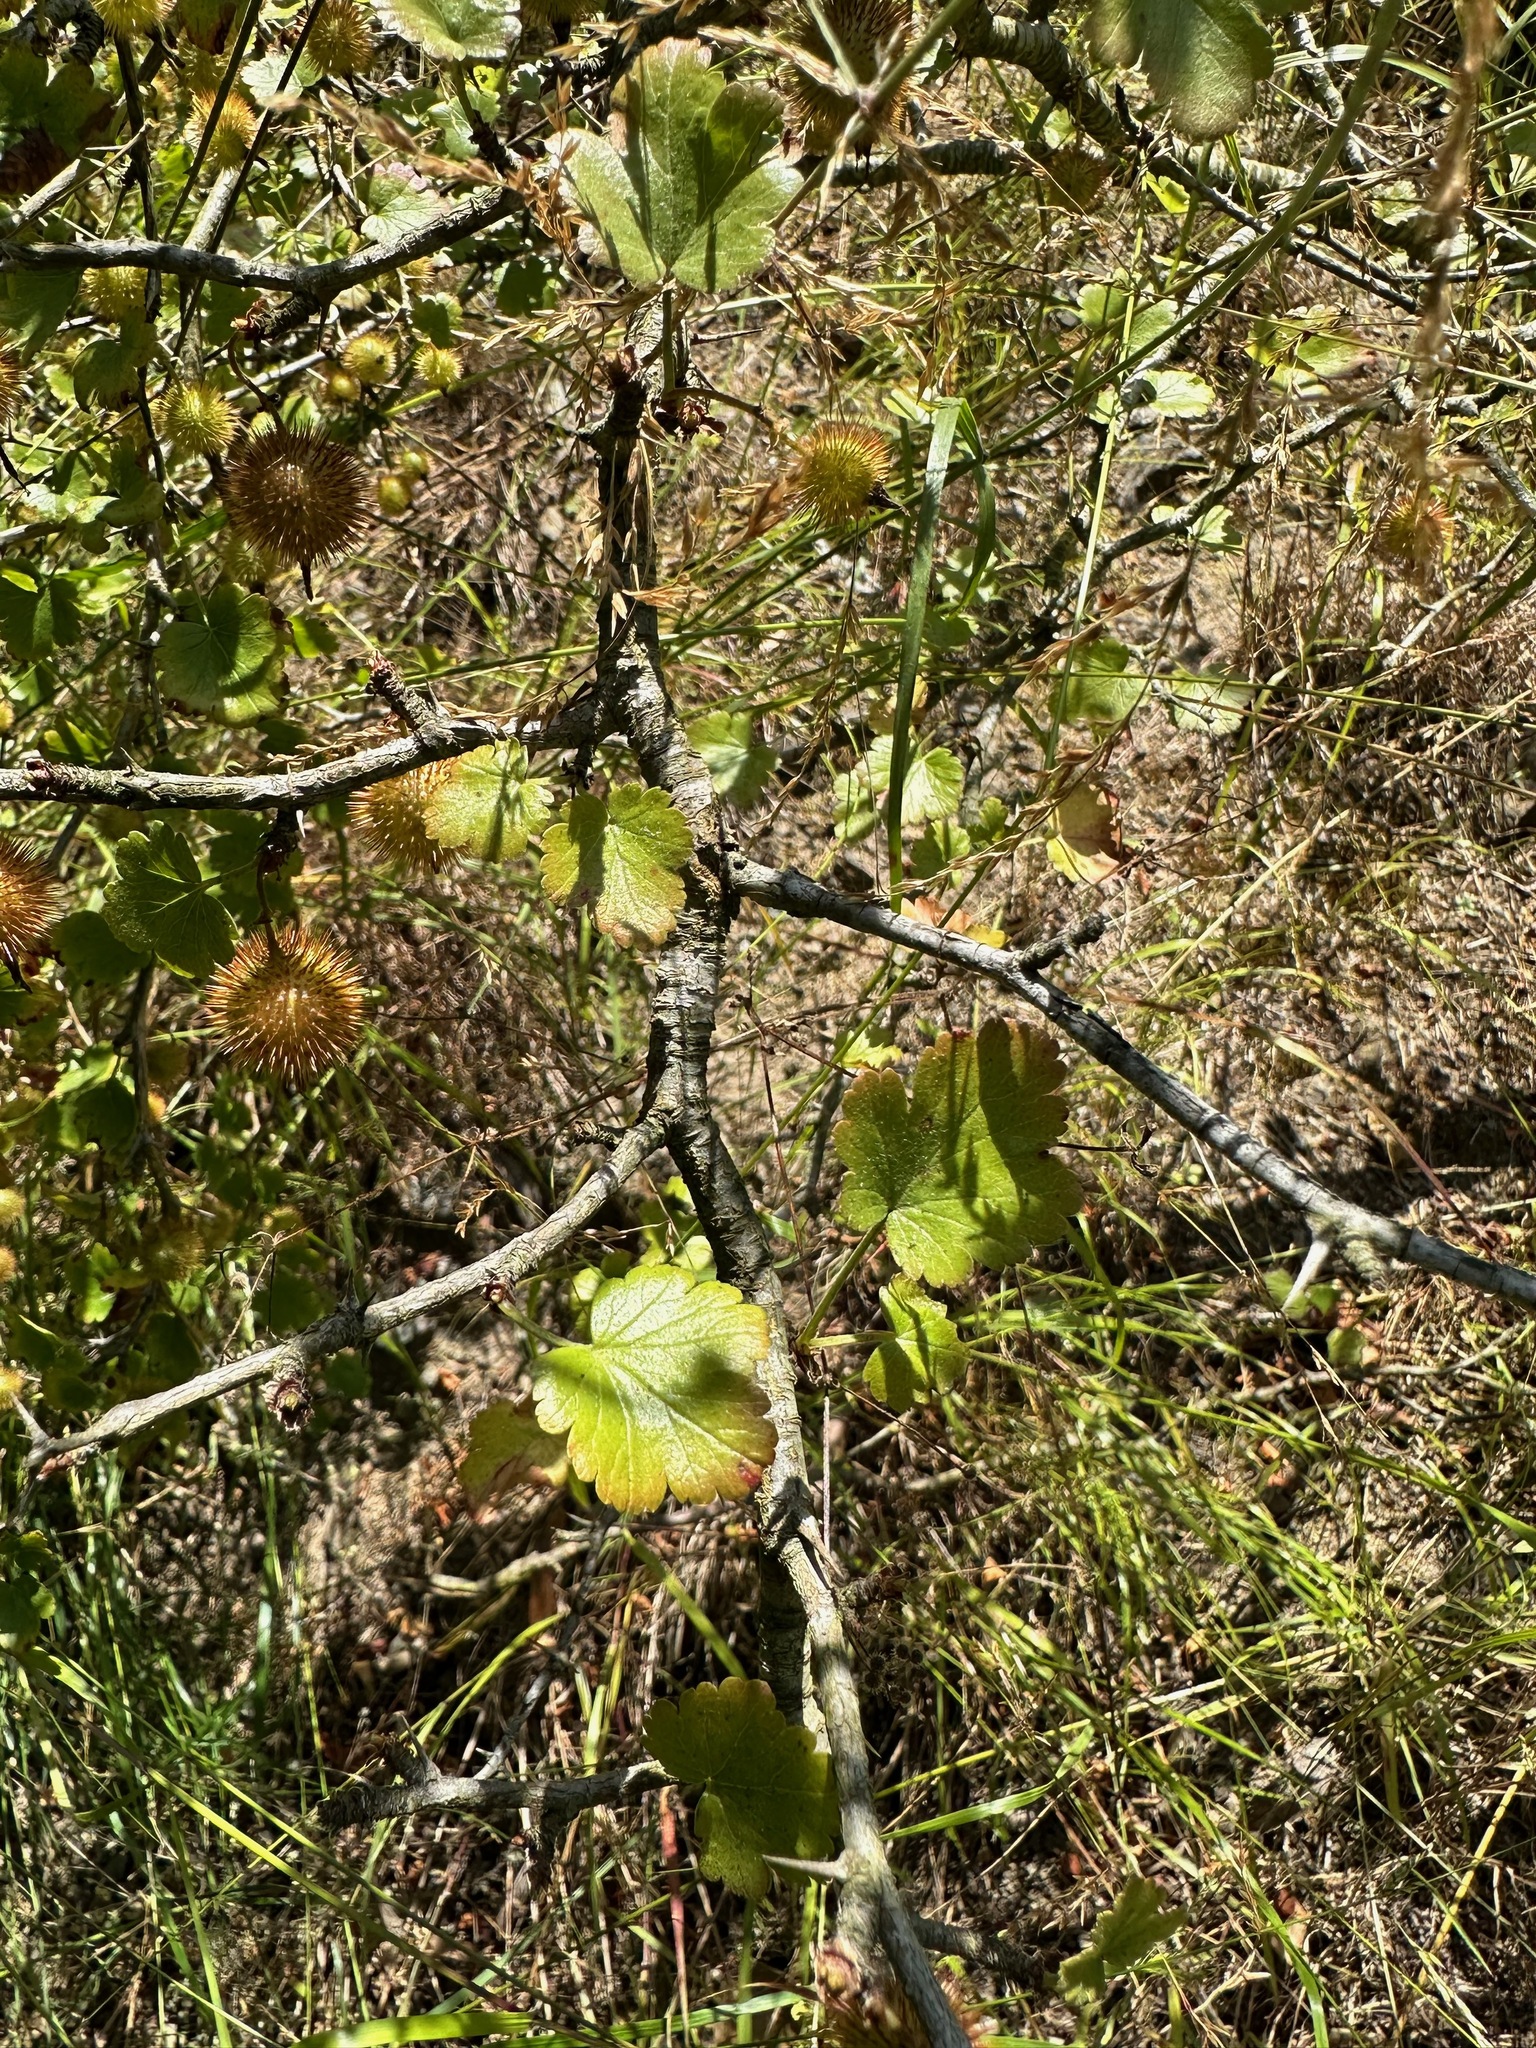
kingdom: Plantae
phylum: Tracheophyta
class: Magnoliopsida
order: Saxifragales
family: Grossulariaceae
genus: Ribes
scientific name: Ribes californicum
